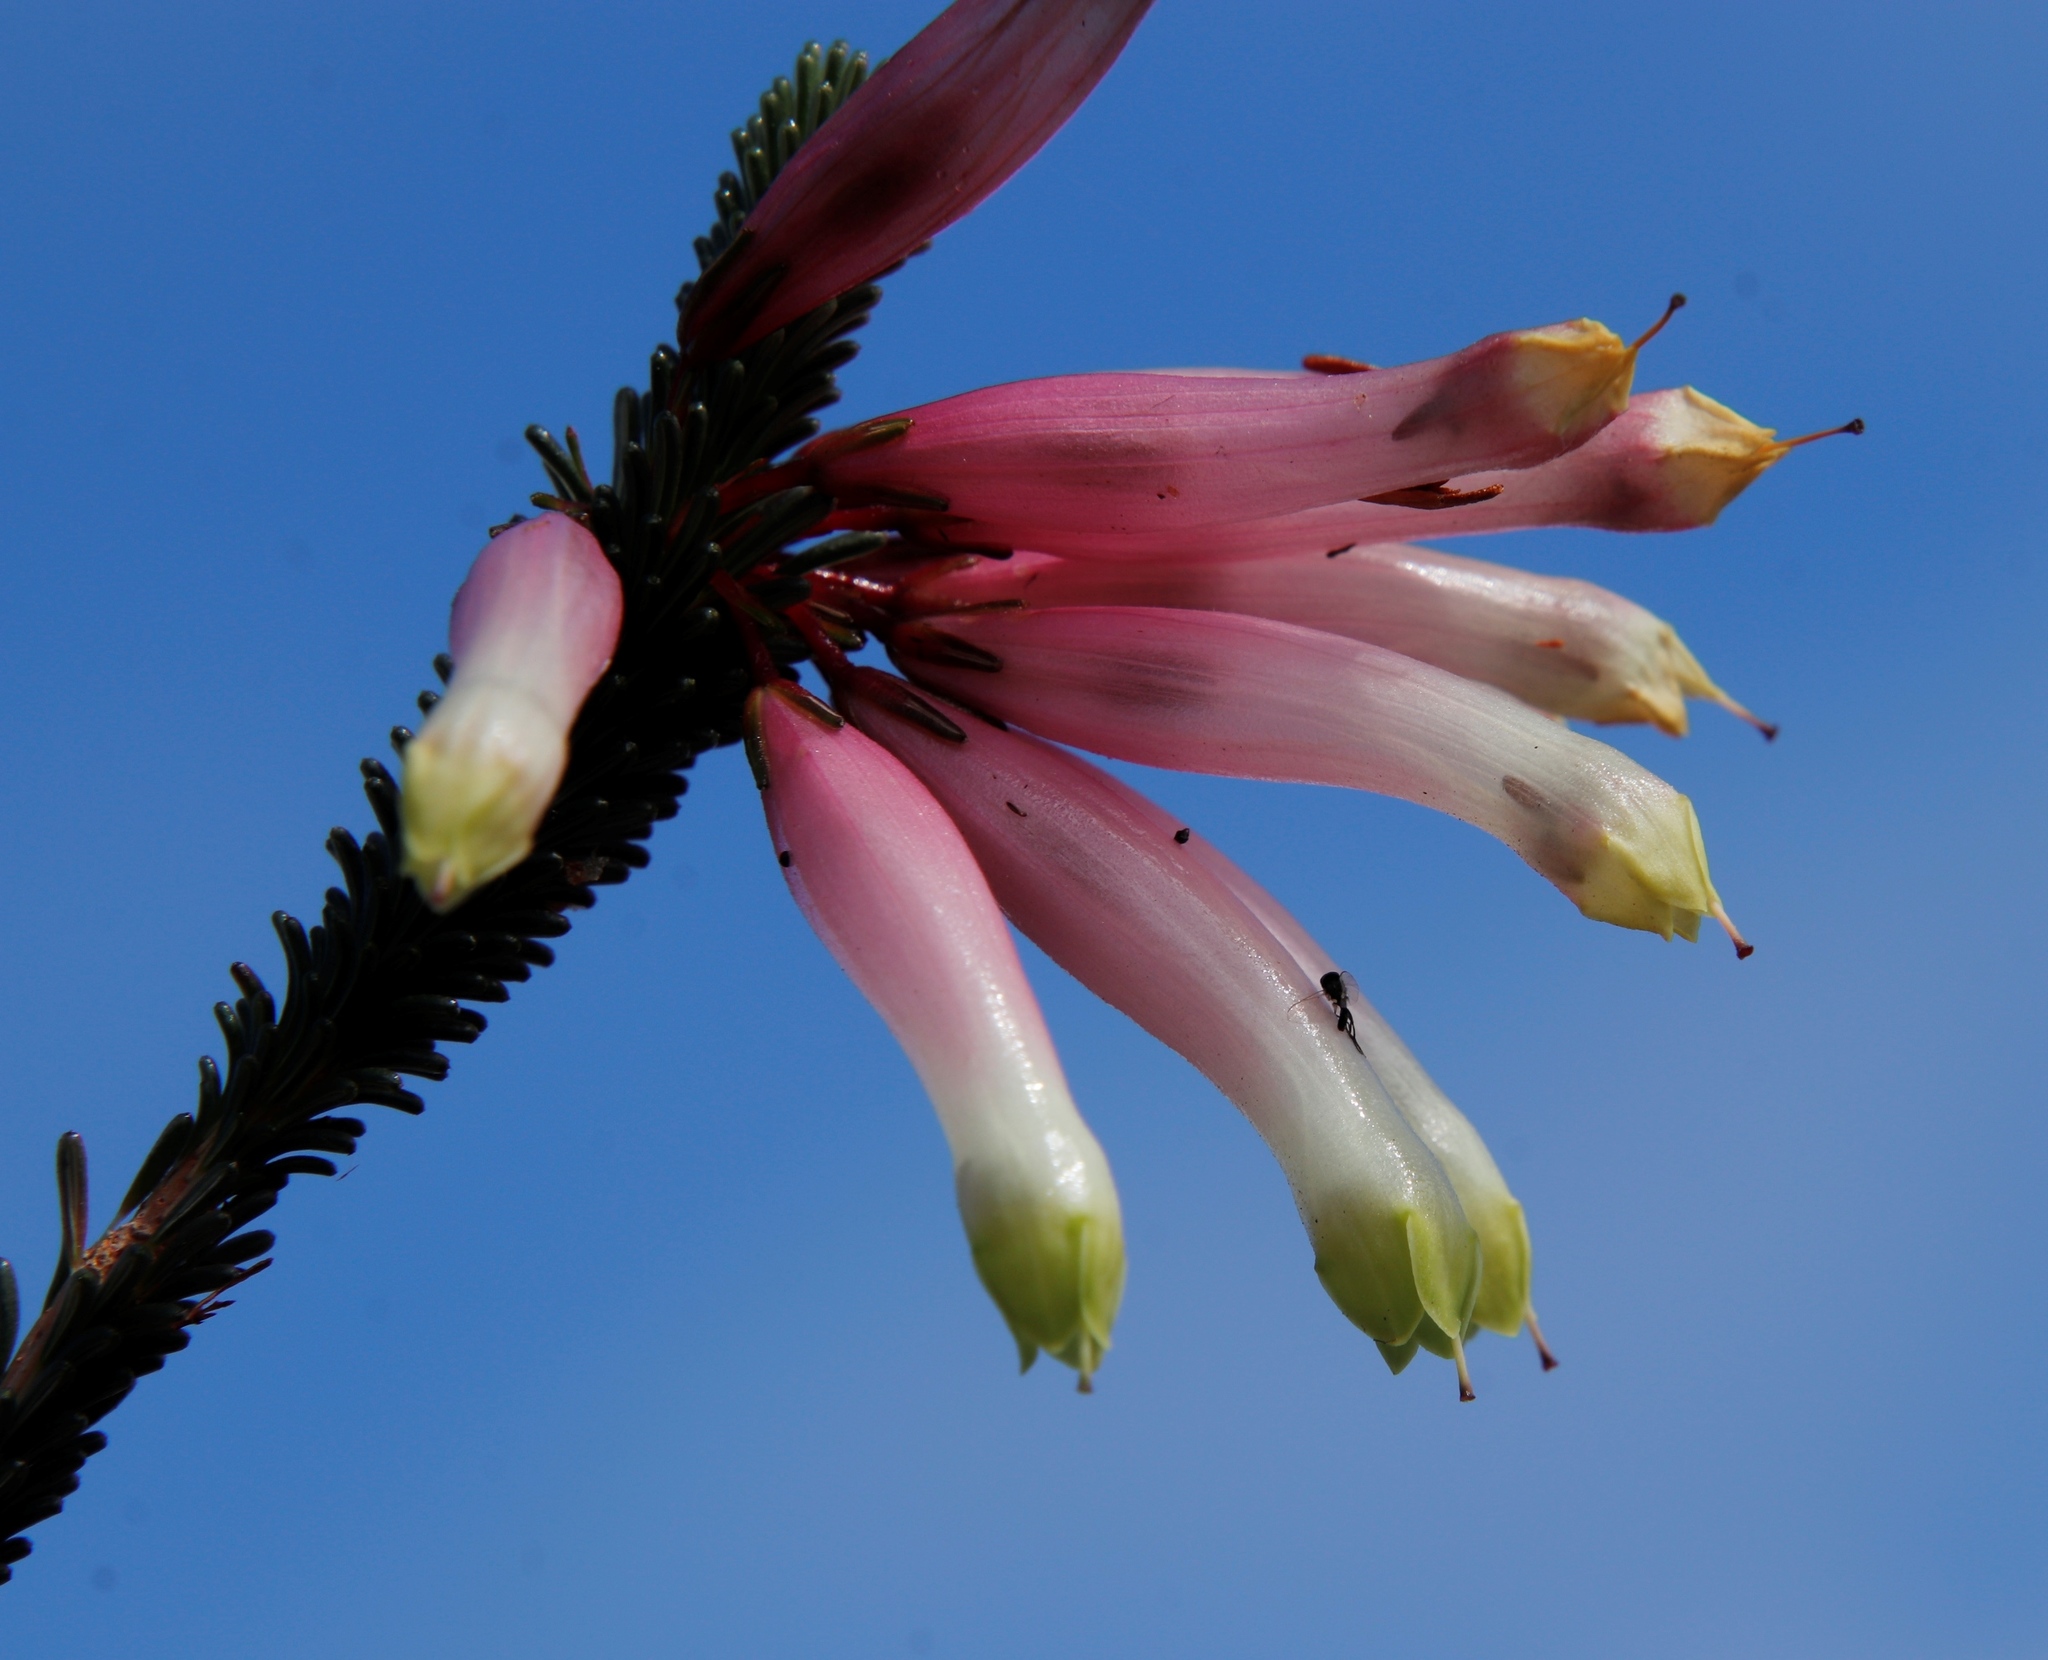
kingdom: Plantae
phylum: Tracheophyta
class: Magnoliopsida
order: Ericales
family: Ericaceae
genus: Erica
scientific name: Erica fascicularis
